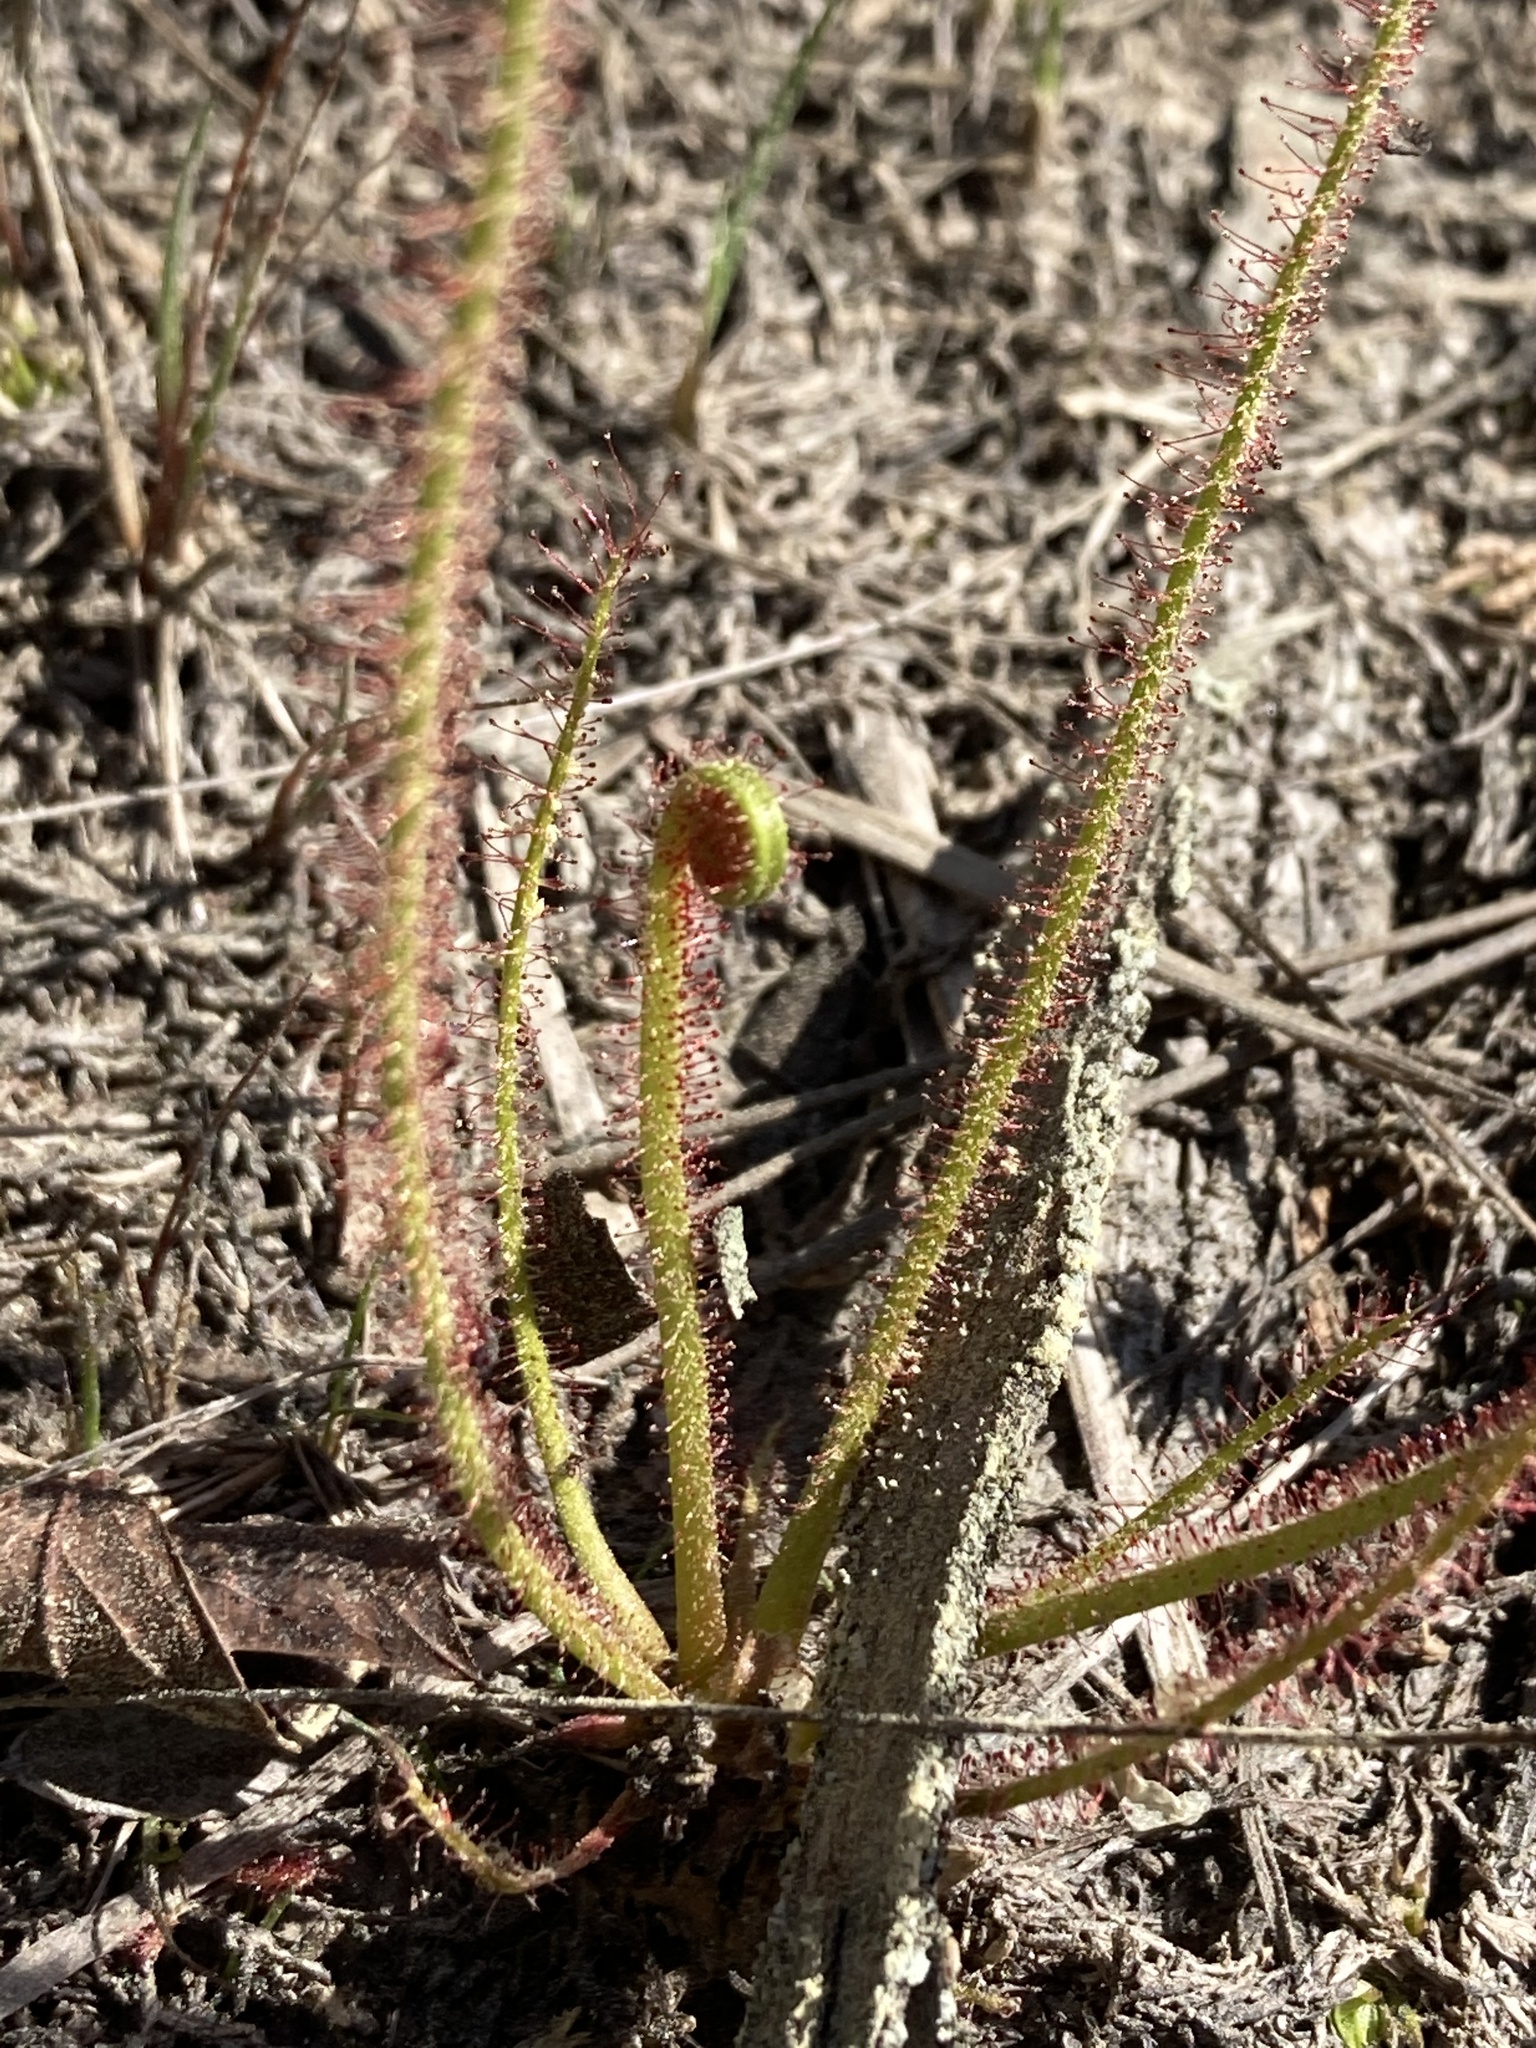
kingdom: Plantae
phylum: Tracheophyta
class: Magnoliopsida
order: Caryophyllales
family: Droseraceae
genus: Drosera
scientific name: Drosera filiformis
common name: Dew-thread
